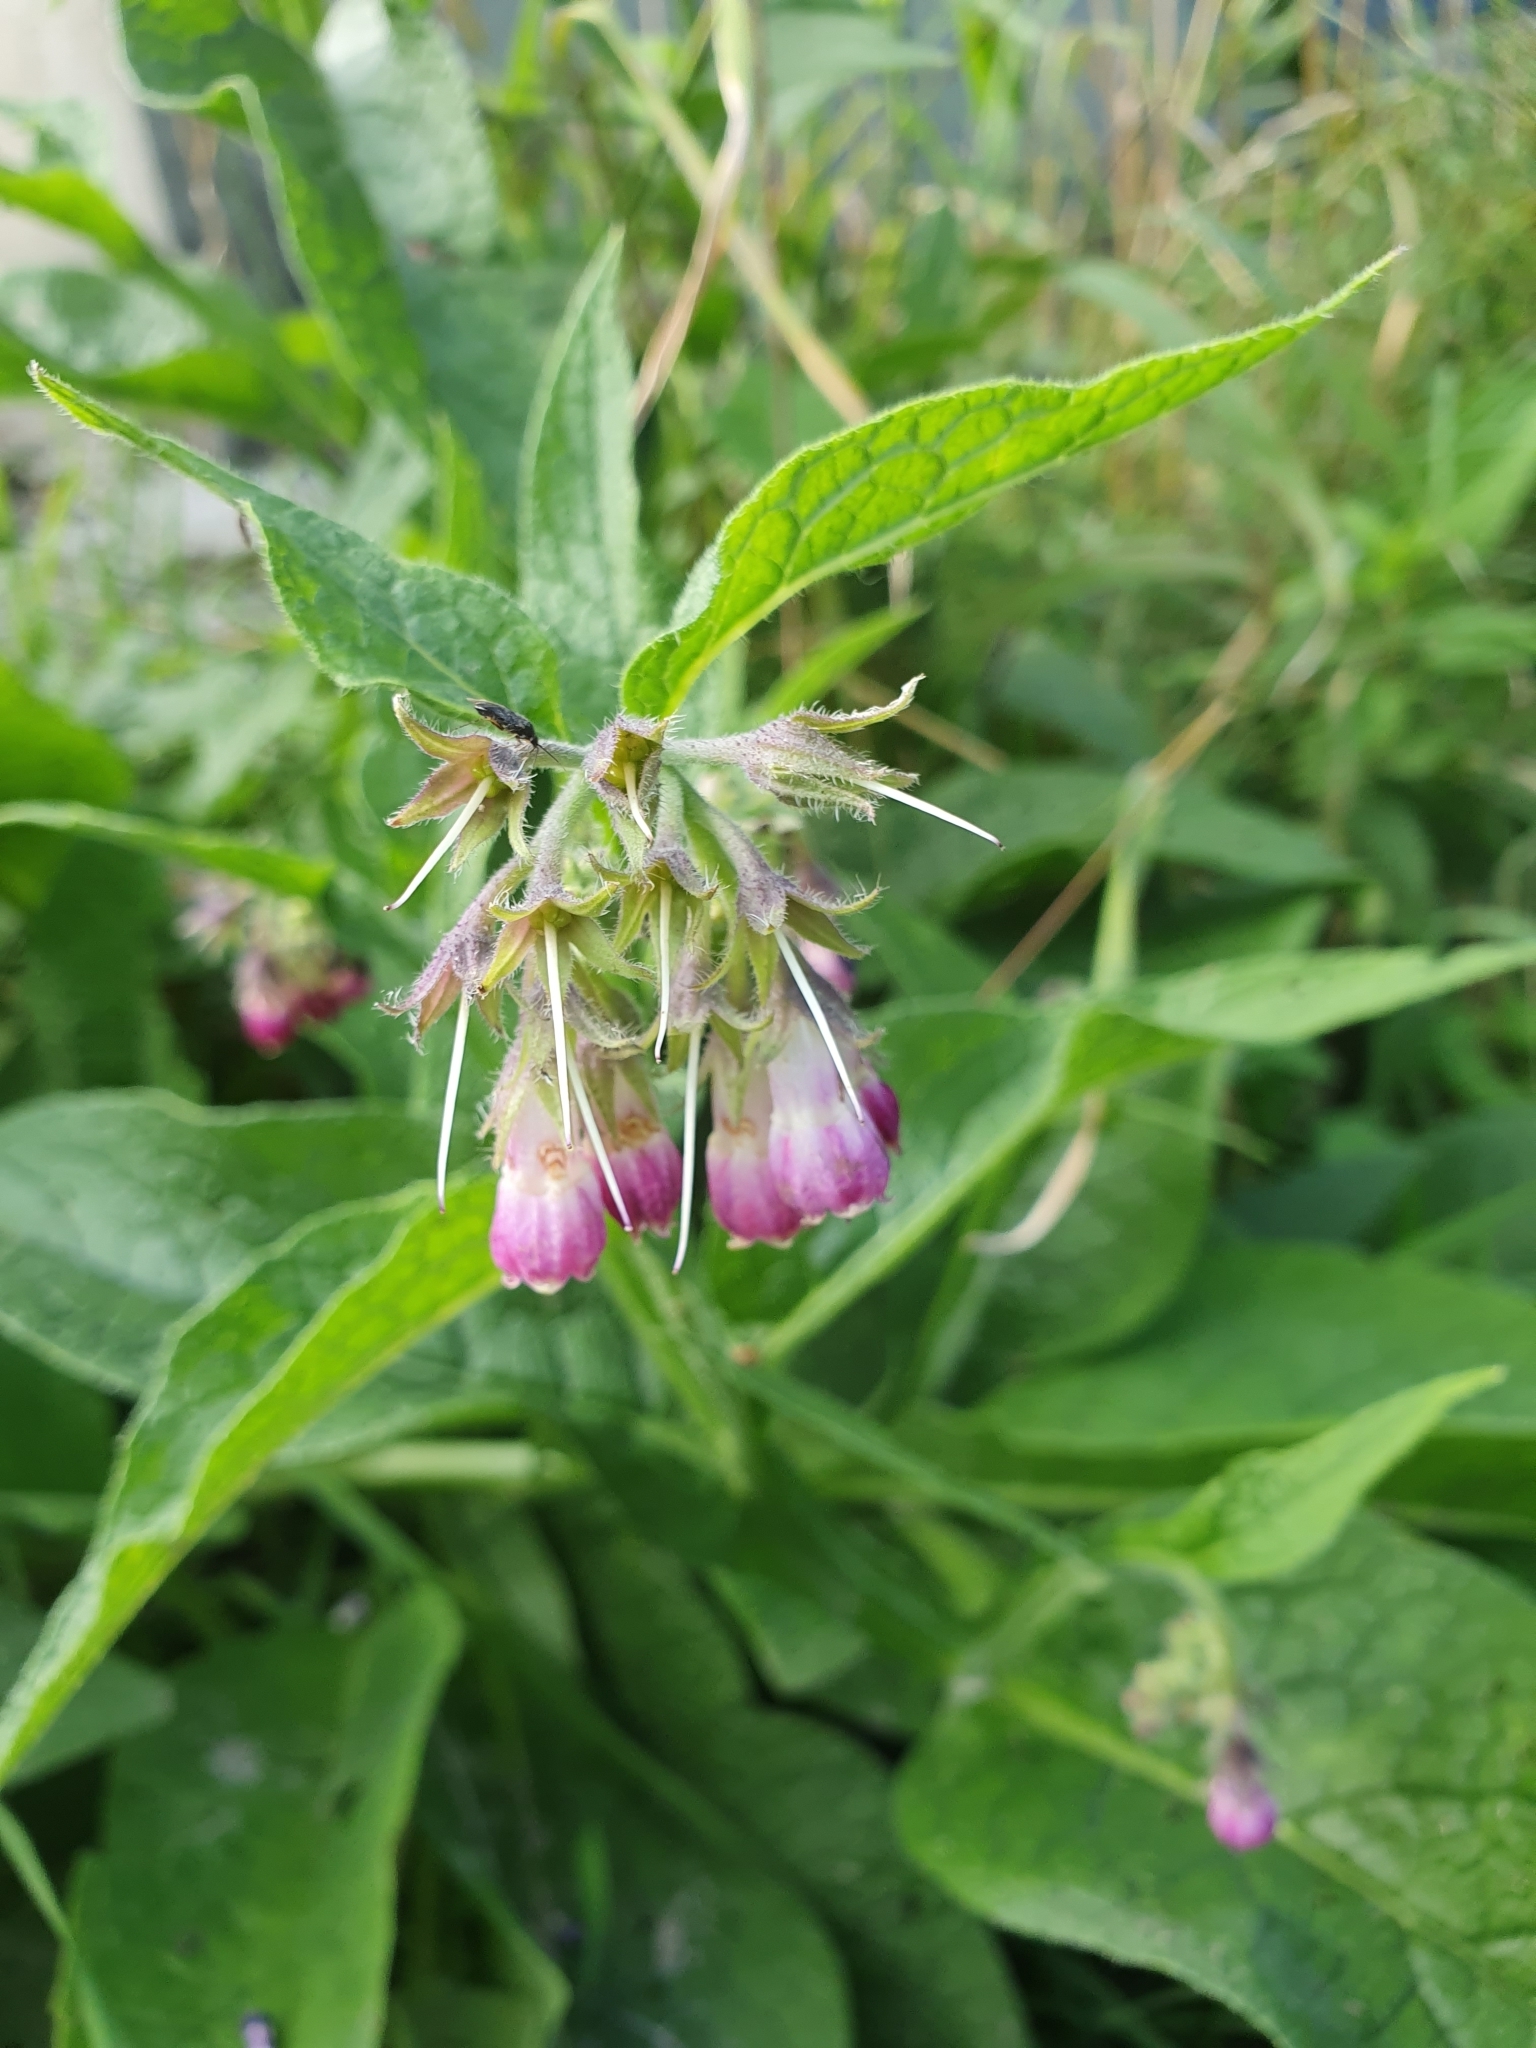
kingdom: Plantae
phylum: Tracheophyta
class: Magnoliopsida
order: Boraginales
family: Boraginaceae
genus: Symphytum
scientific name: Symphytum officinale
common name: Common comfrey
